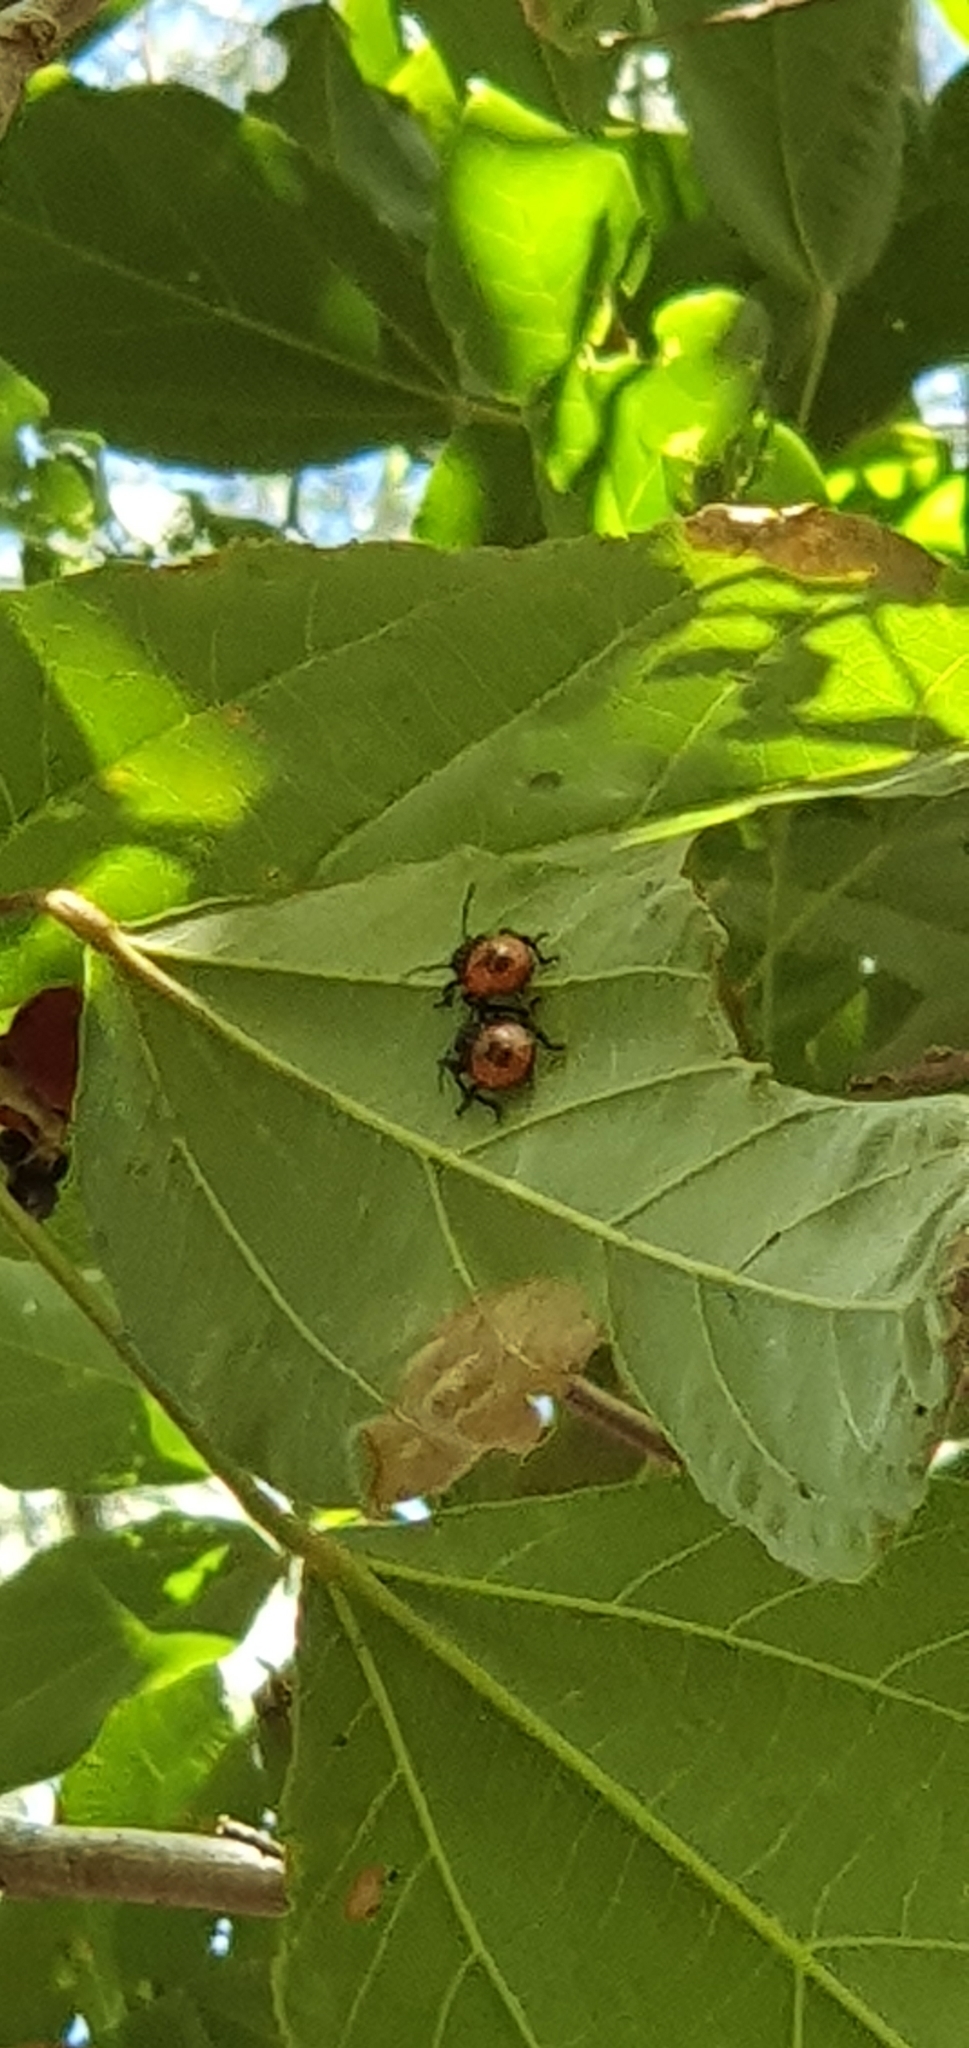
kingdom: Animalia
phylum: Arthropoda
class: Insecta
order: Hemiptera
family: Scutelleridae
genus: Cantao
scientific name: Cantao
